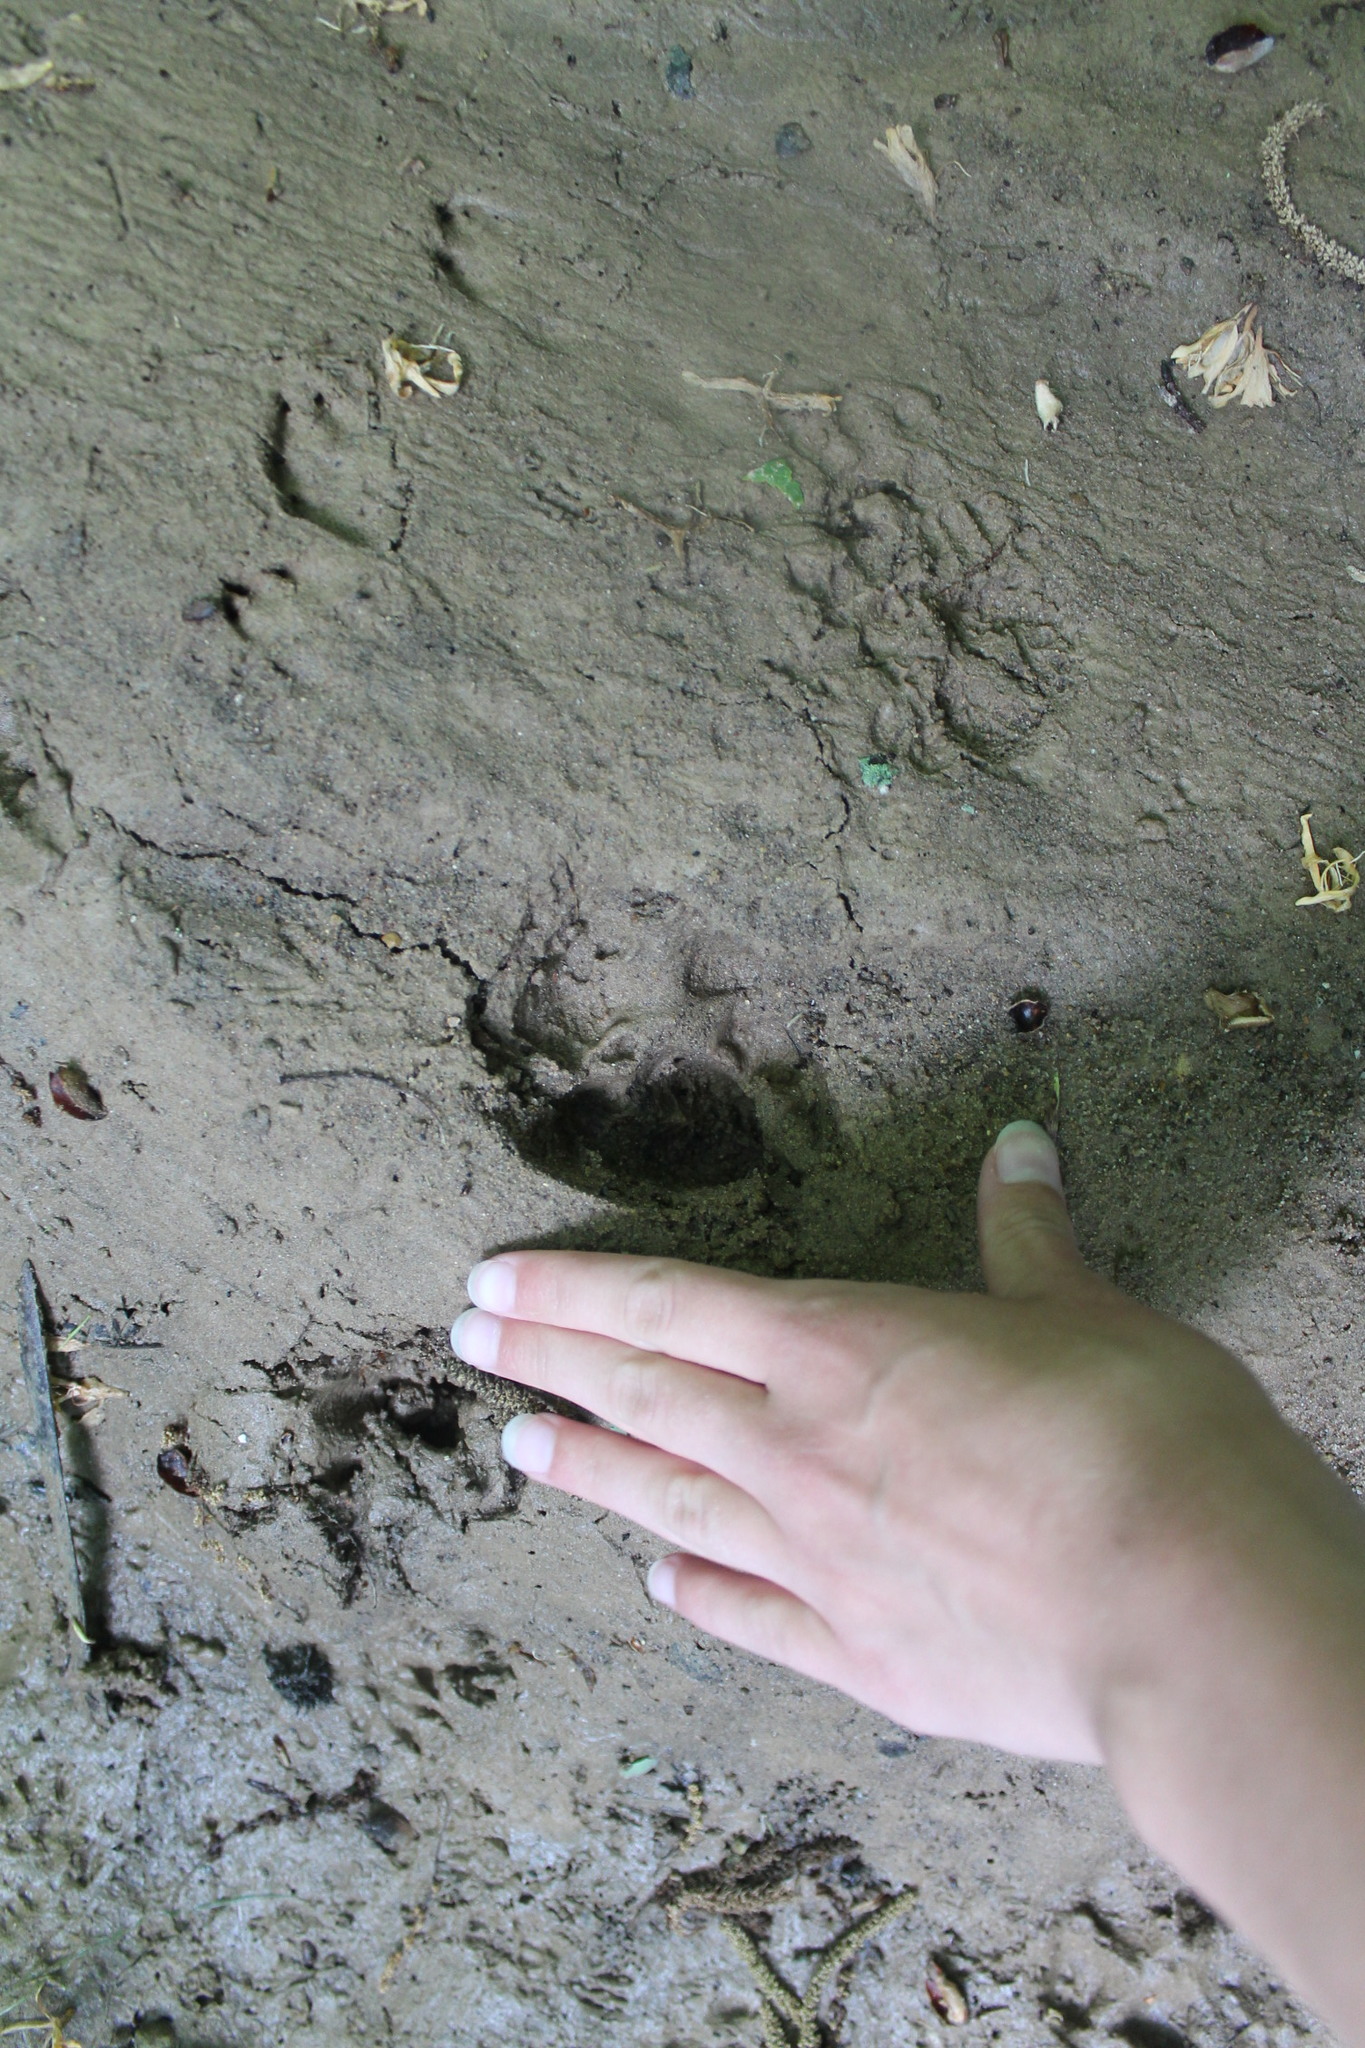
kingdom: Animalia
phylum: Chordata
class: Mammalia
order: Carnivora
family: Canidae
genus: Canis
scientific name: Canis latrans
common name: Coyote
